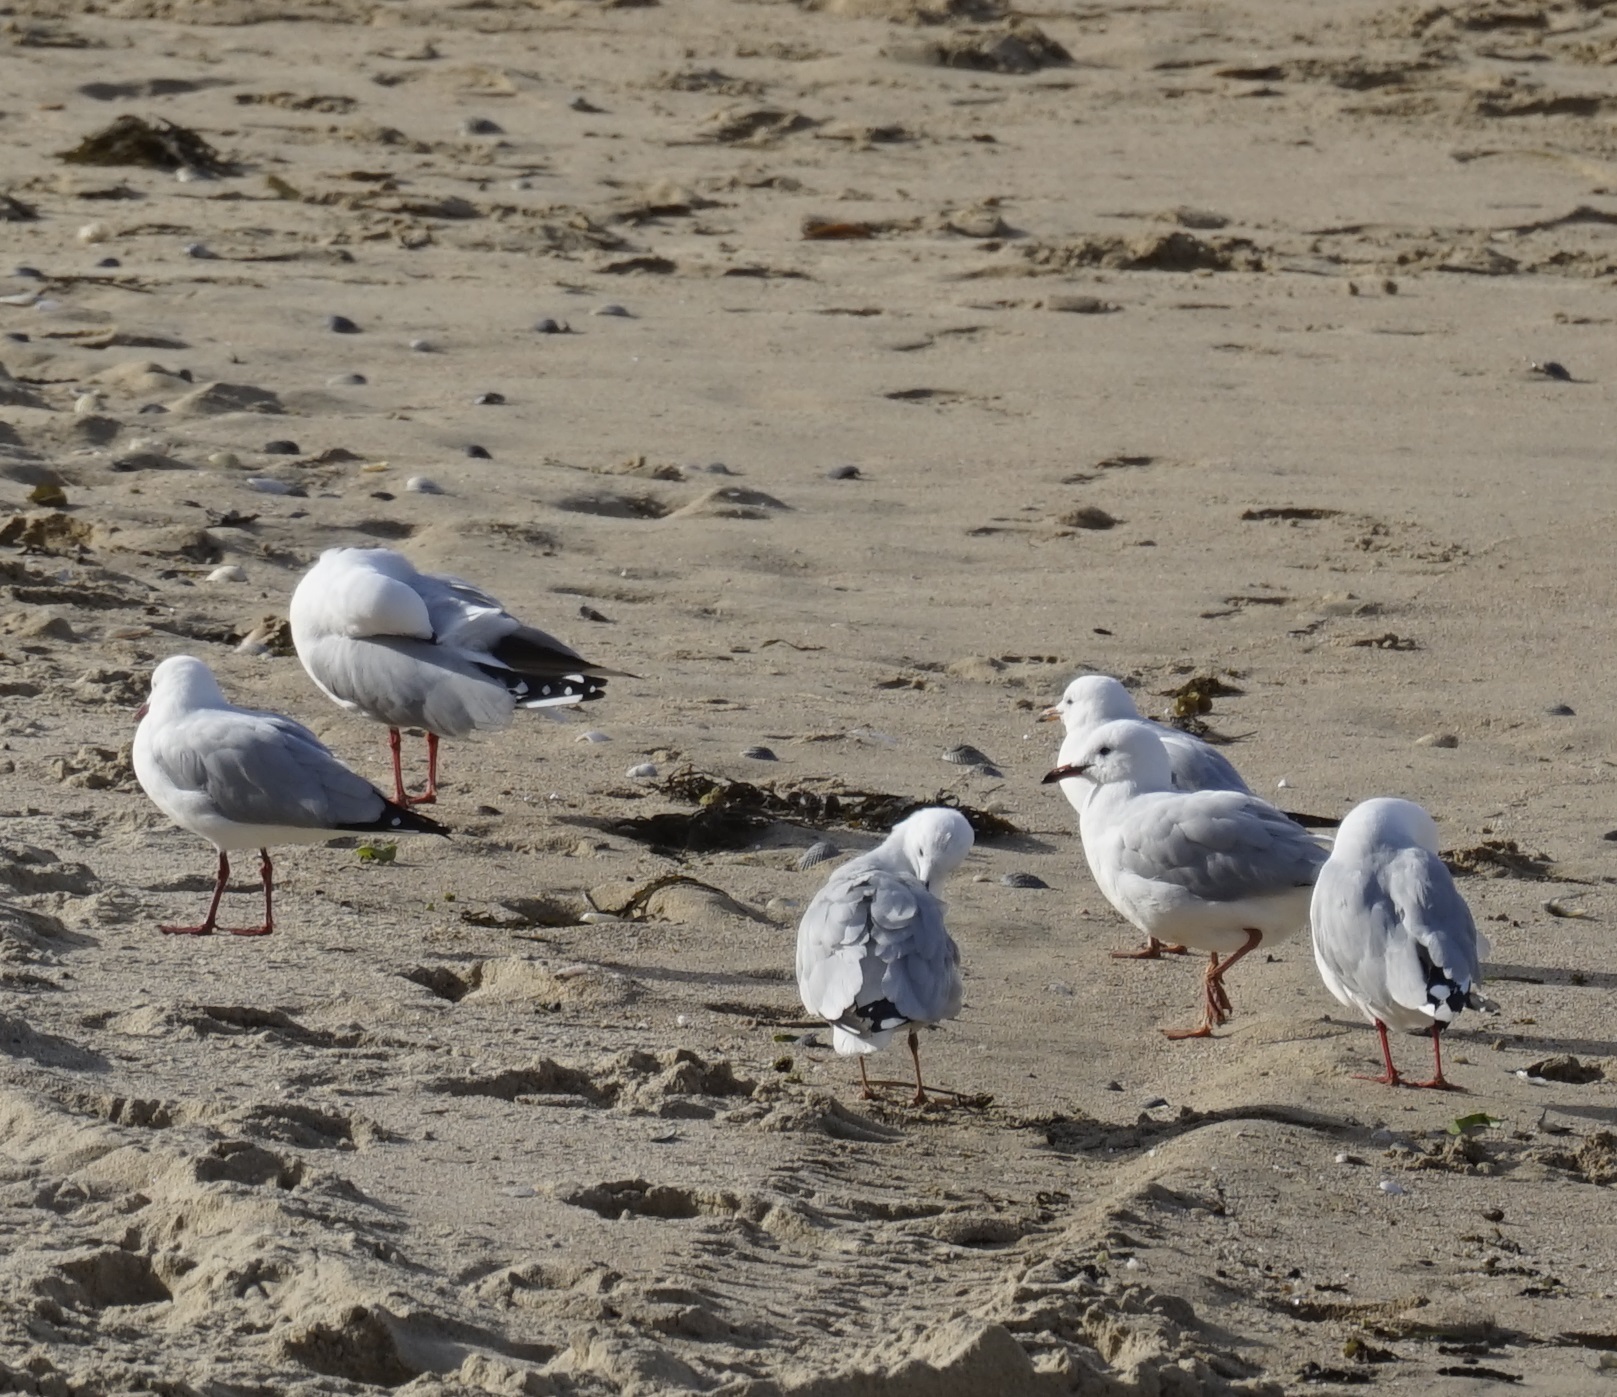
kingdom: Animalia
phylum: Chordata
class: Aves
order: Charadriiformes
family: Laridae
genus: Chroicocephalus
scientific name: Chroicocephalus novaehollandiae
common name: Silver gull
